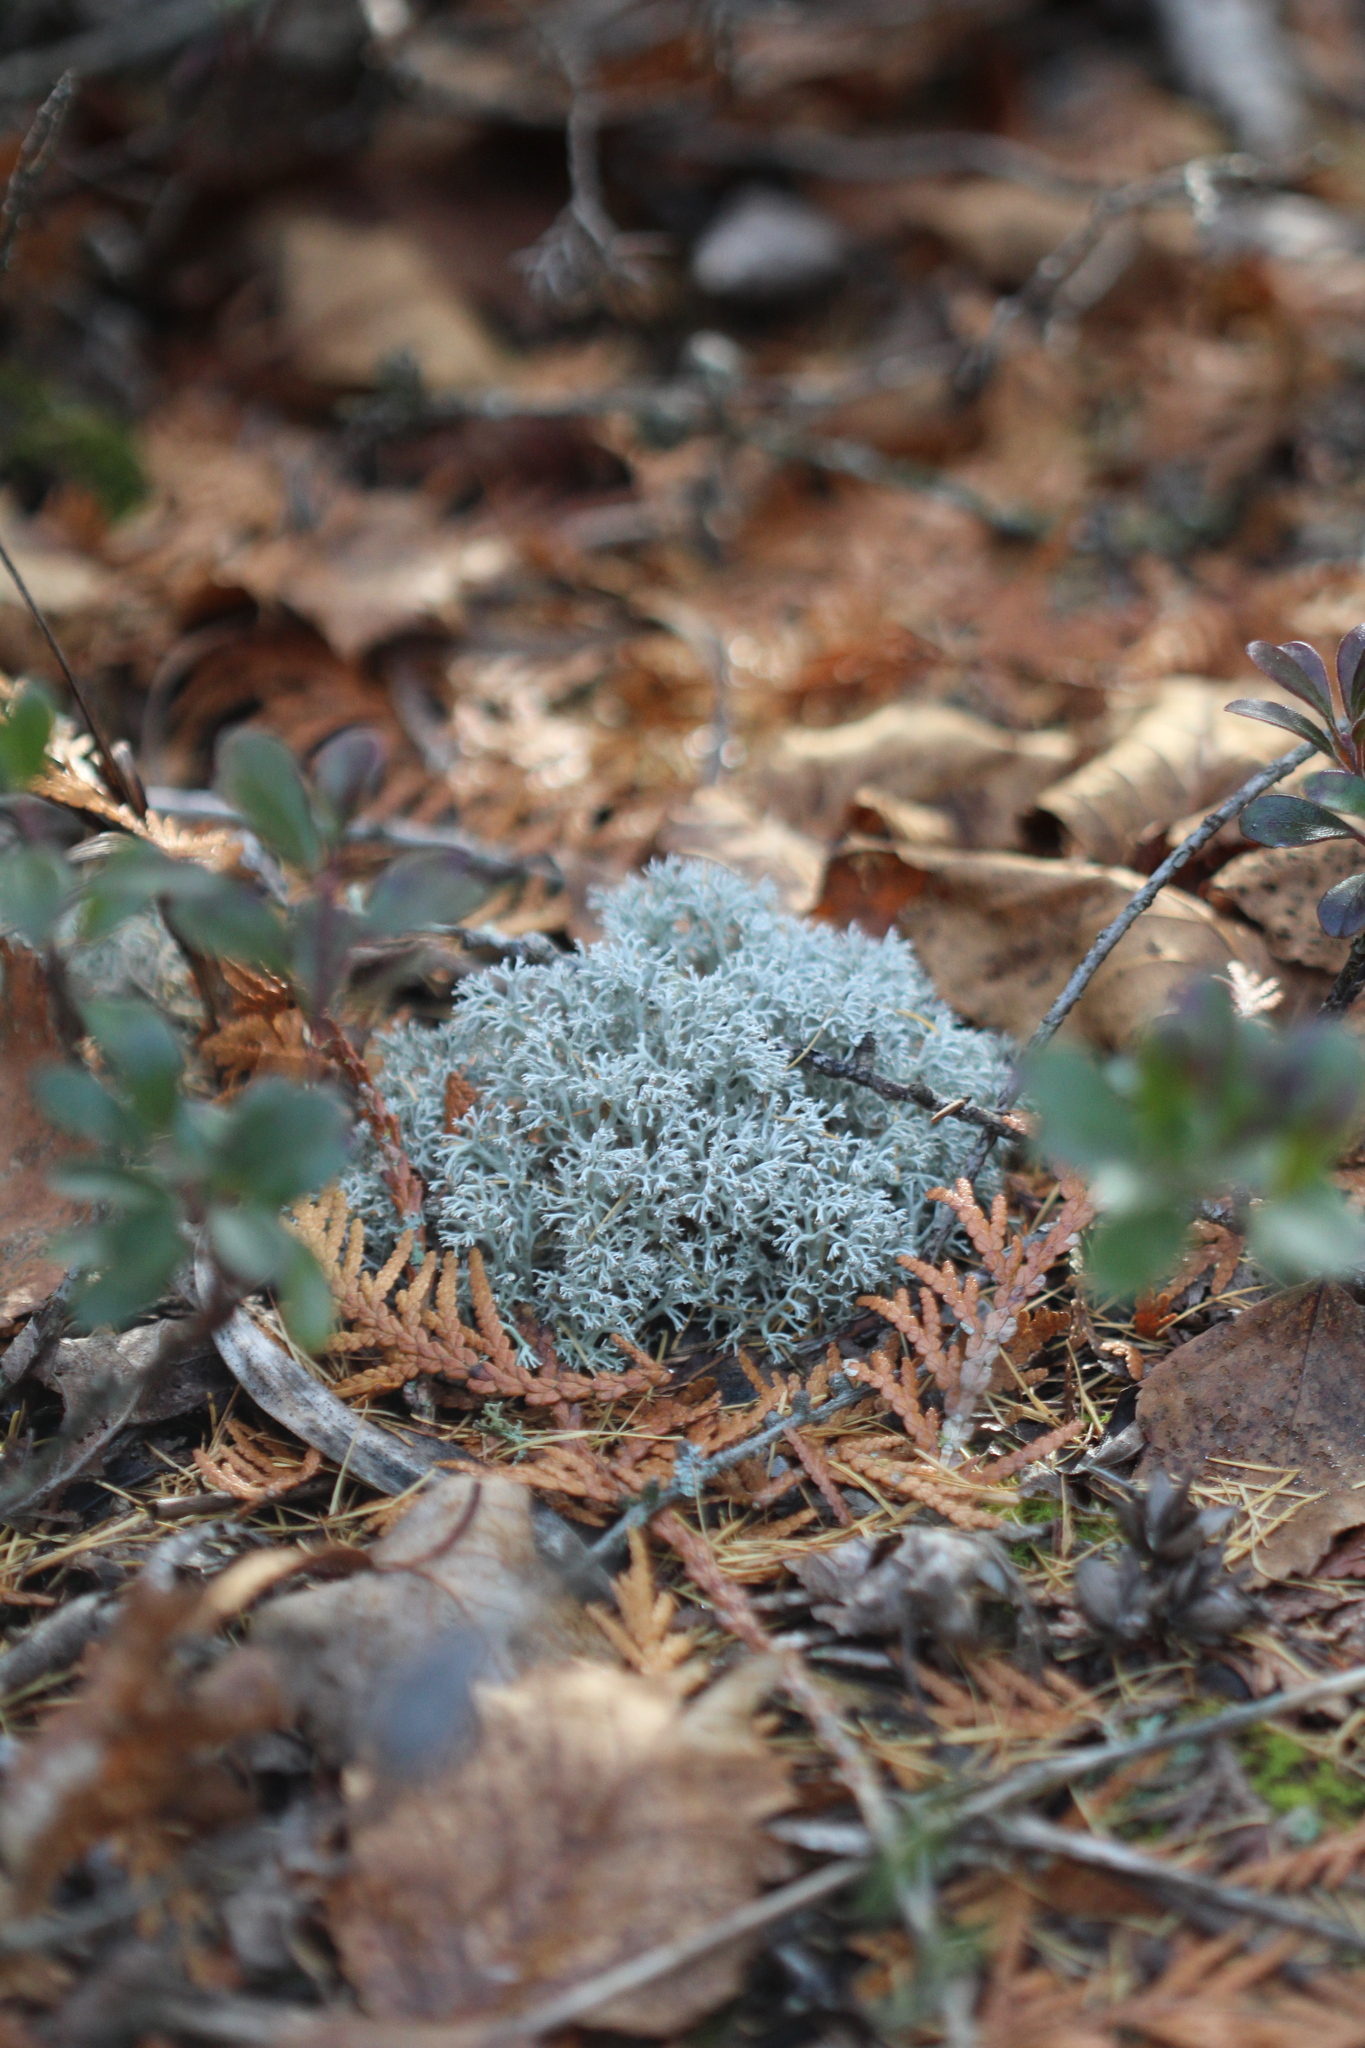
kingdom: Fungi
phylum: Ascomycota
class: Lecanoromycetes
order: Lecanorales
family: Cladoniaceae
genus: Cladonia
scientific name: Cladonia rangiferina
